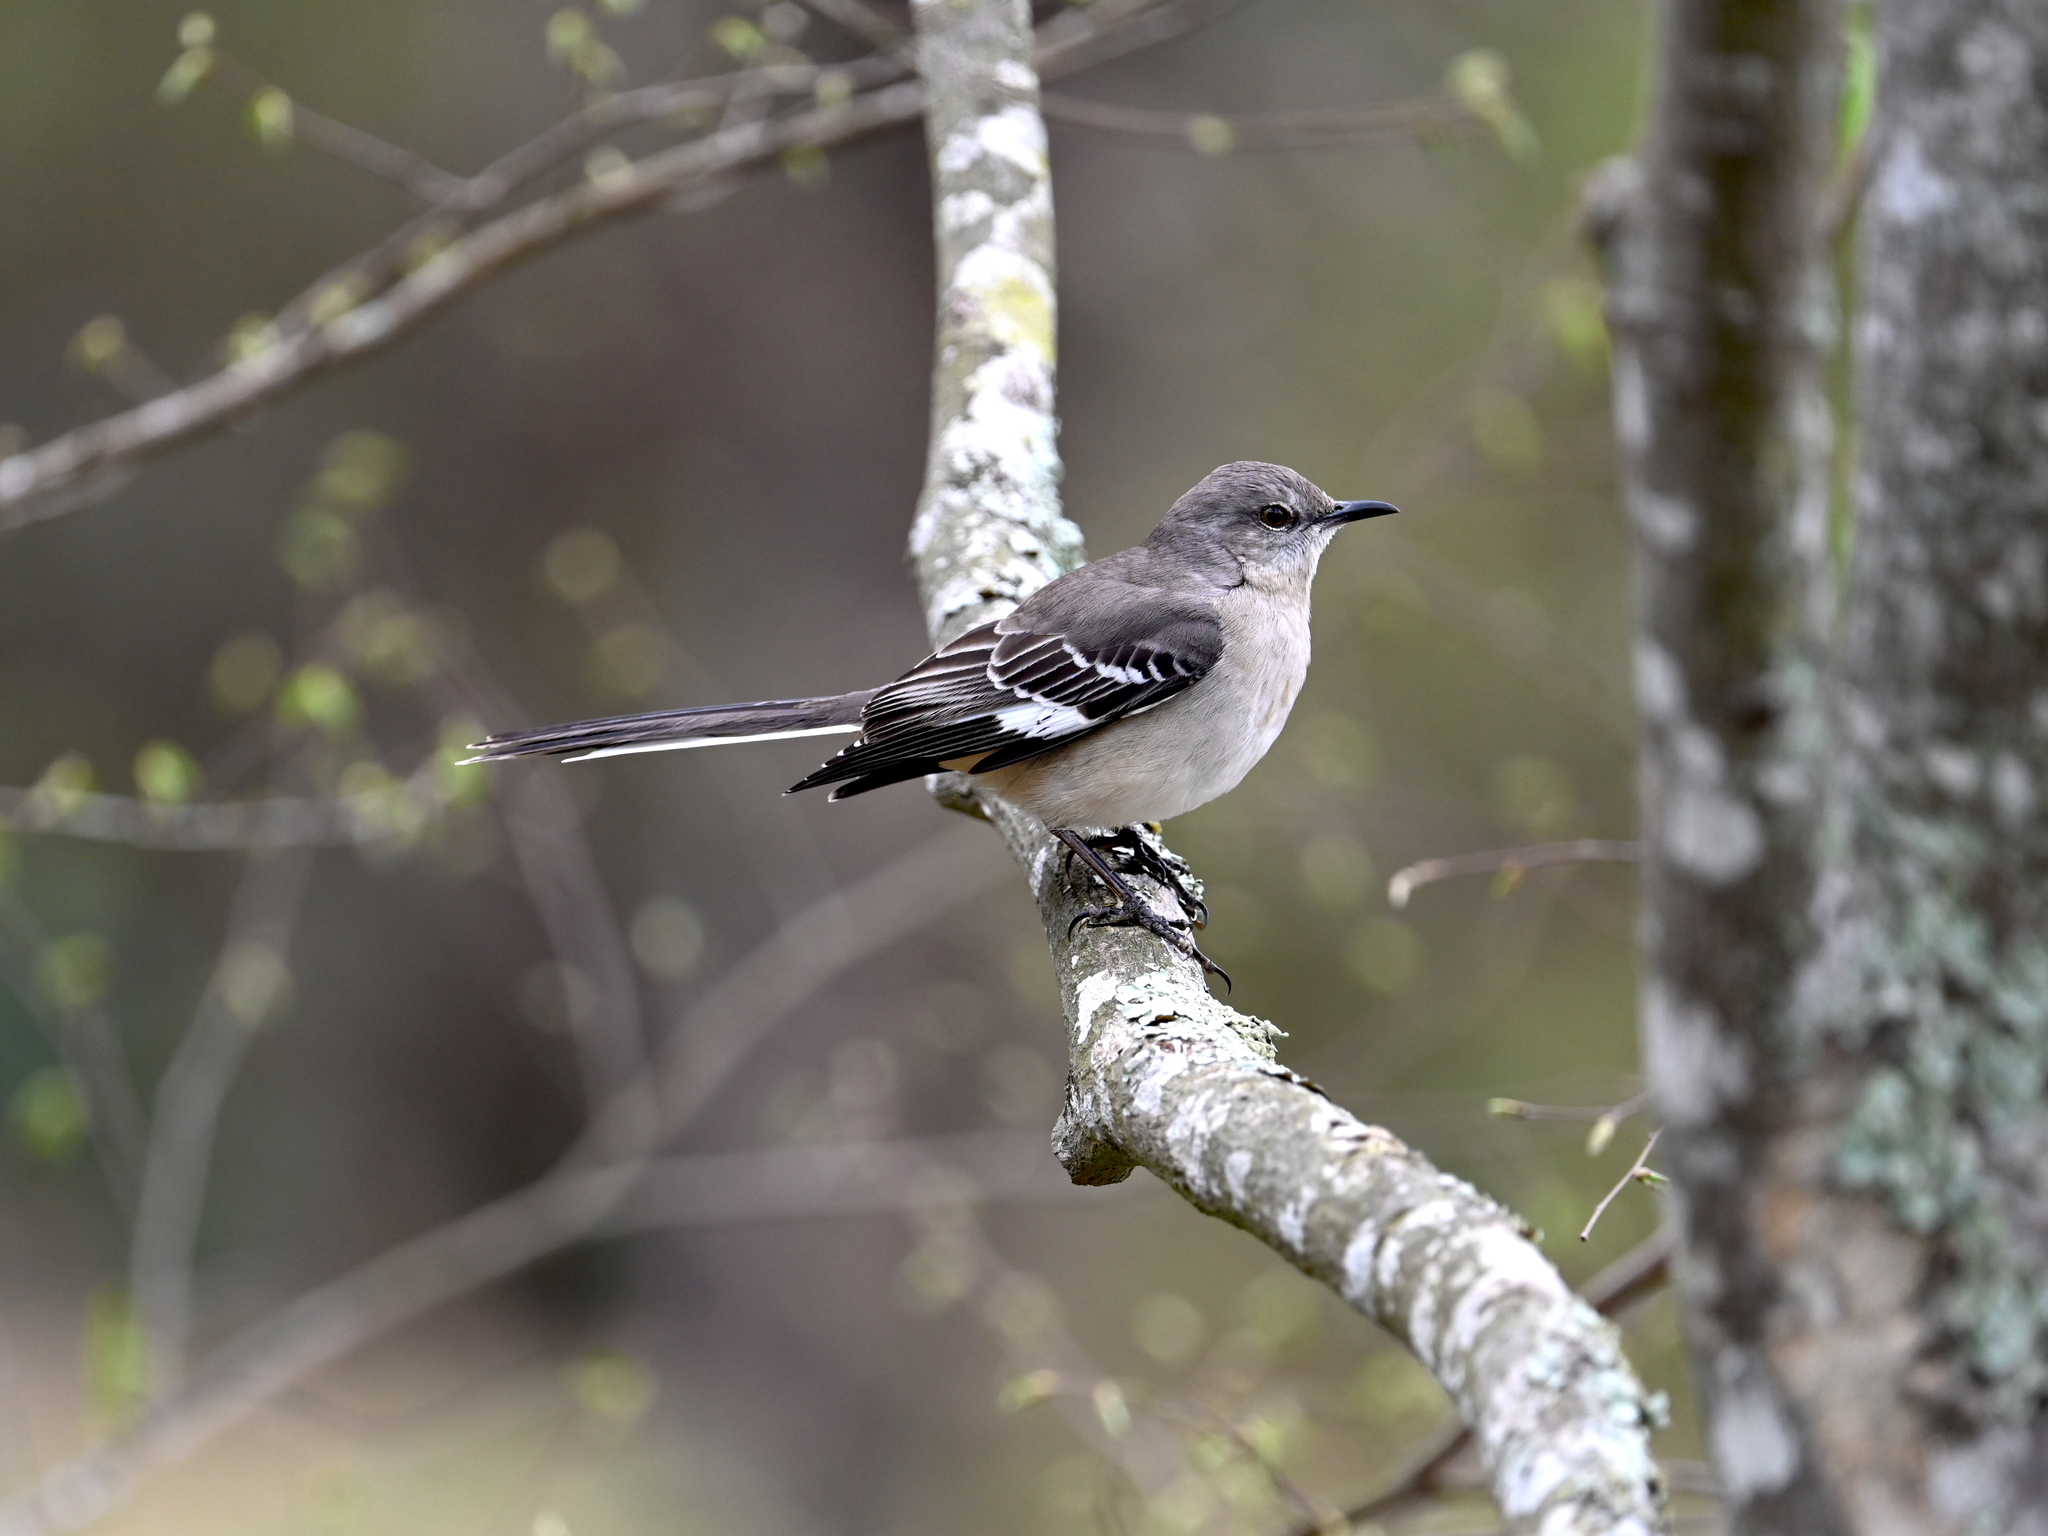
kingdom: Animalia
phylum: Chordata
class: Aves
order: Passeriformes
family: Mimidae
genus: Mimus
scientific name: Mimus polyglottos
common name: Northern mockingbird
